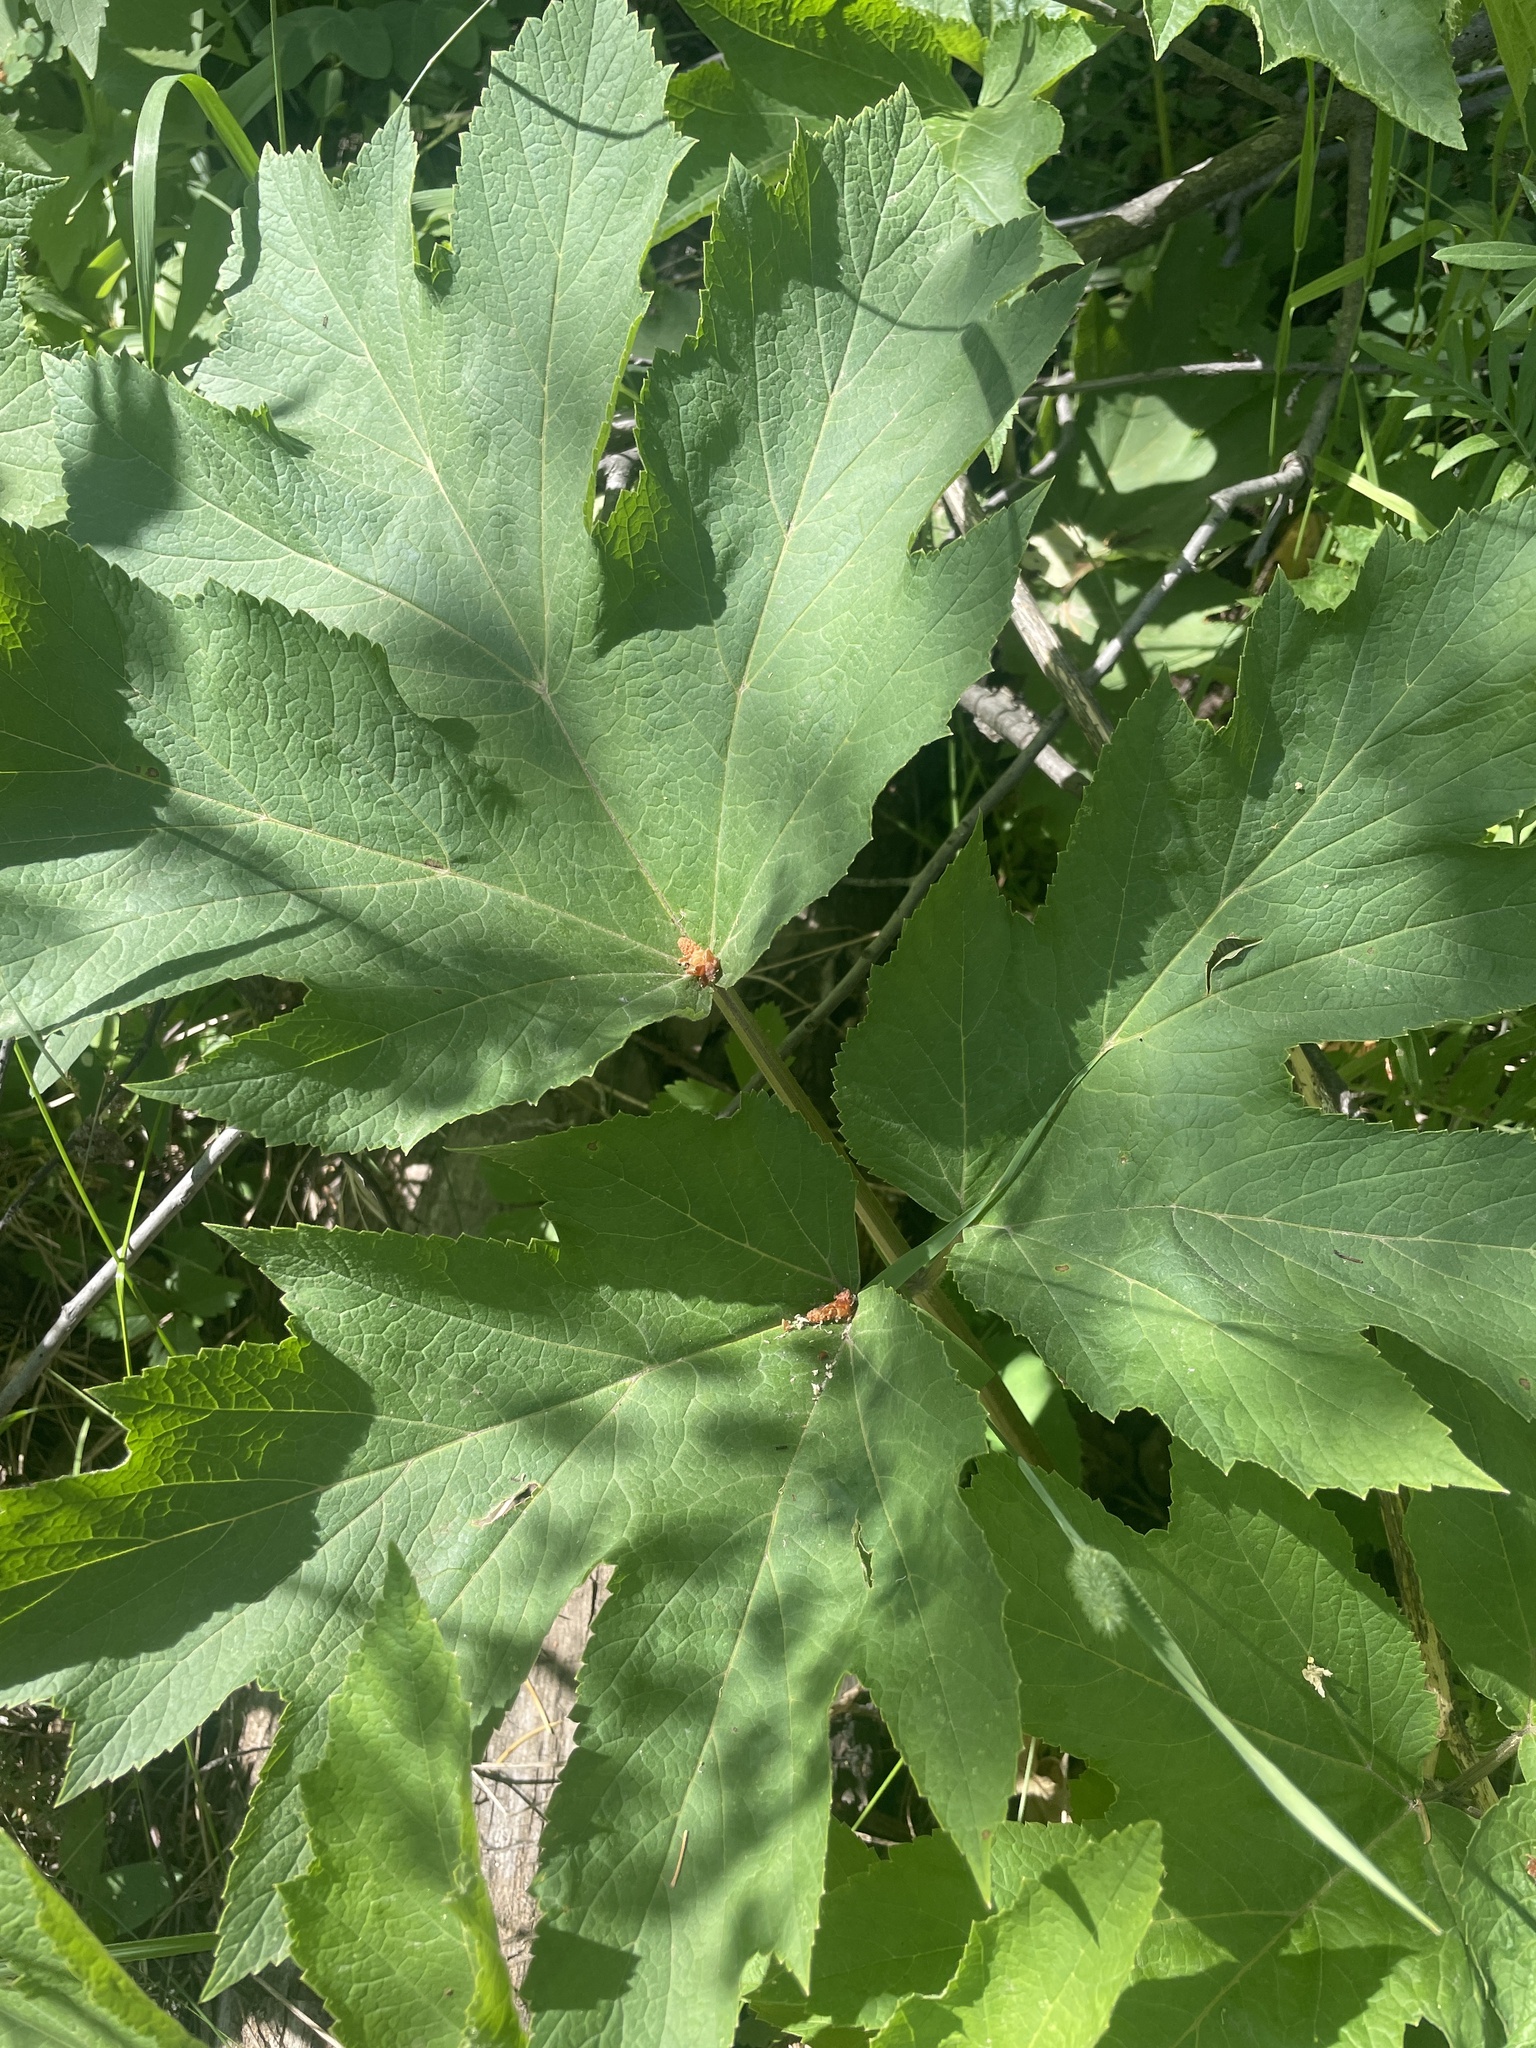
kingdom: Plantae
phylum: Tracheophyta
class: Magnoliopsida
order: Apiales
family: Apiaceae
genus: Heracleum
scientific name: Heracleum maximum
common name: American cow parsnip
